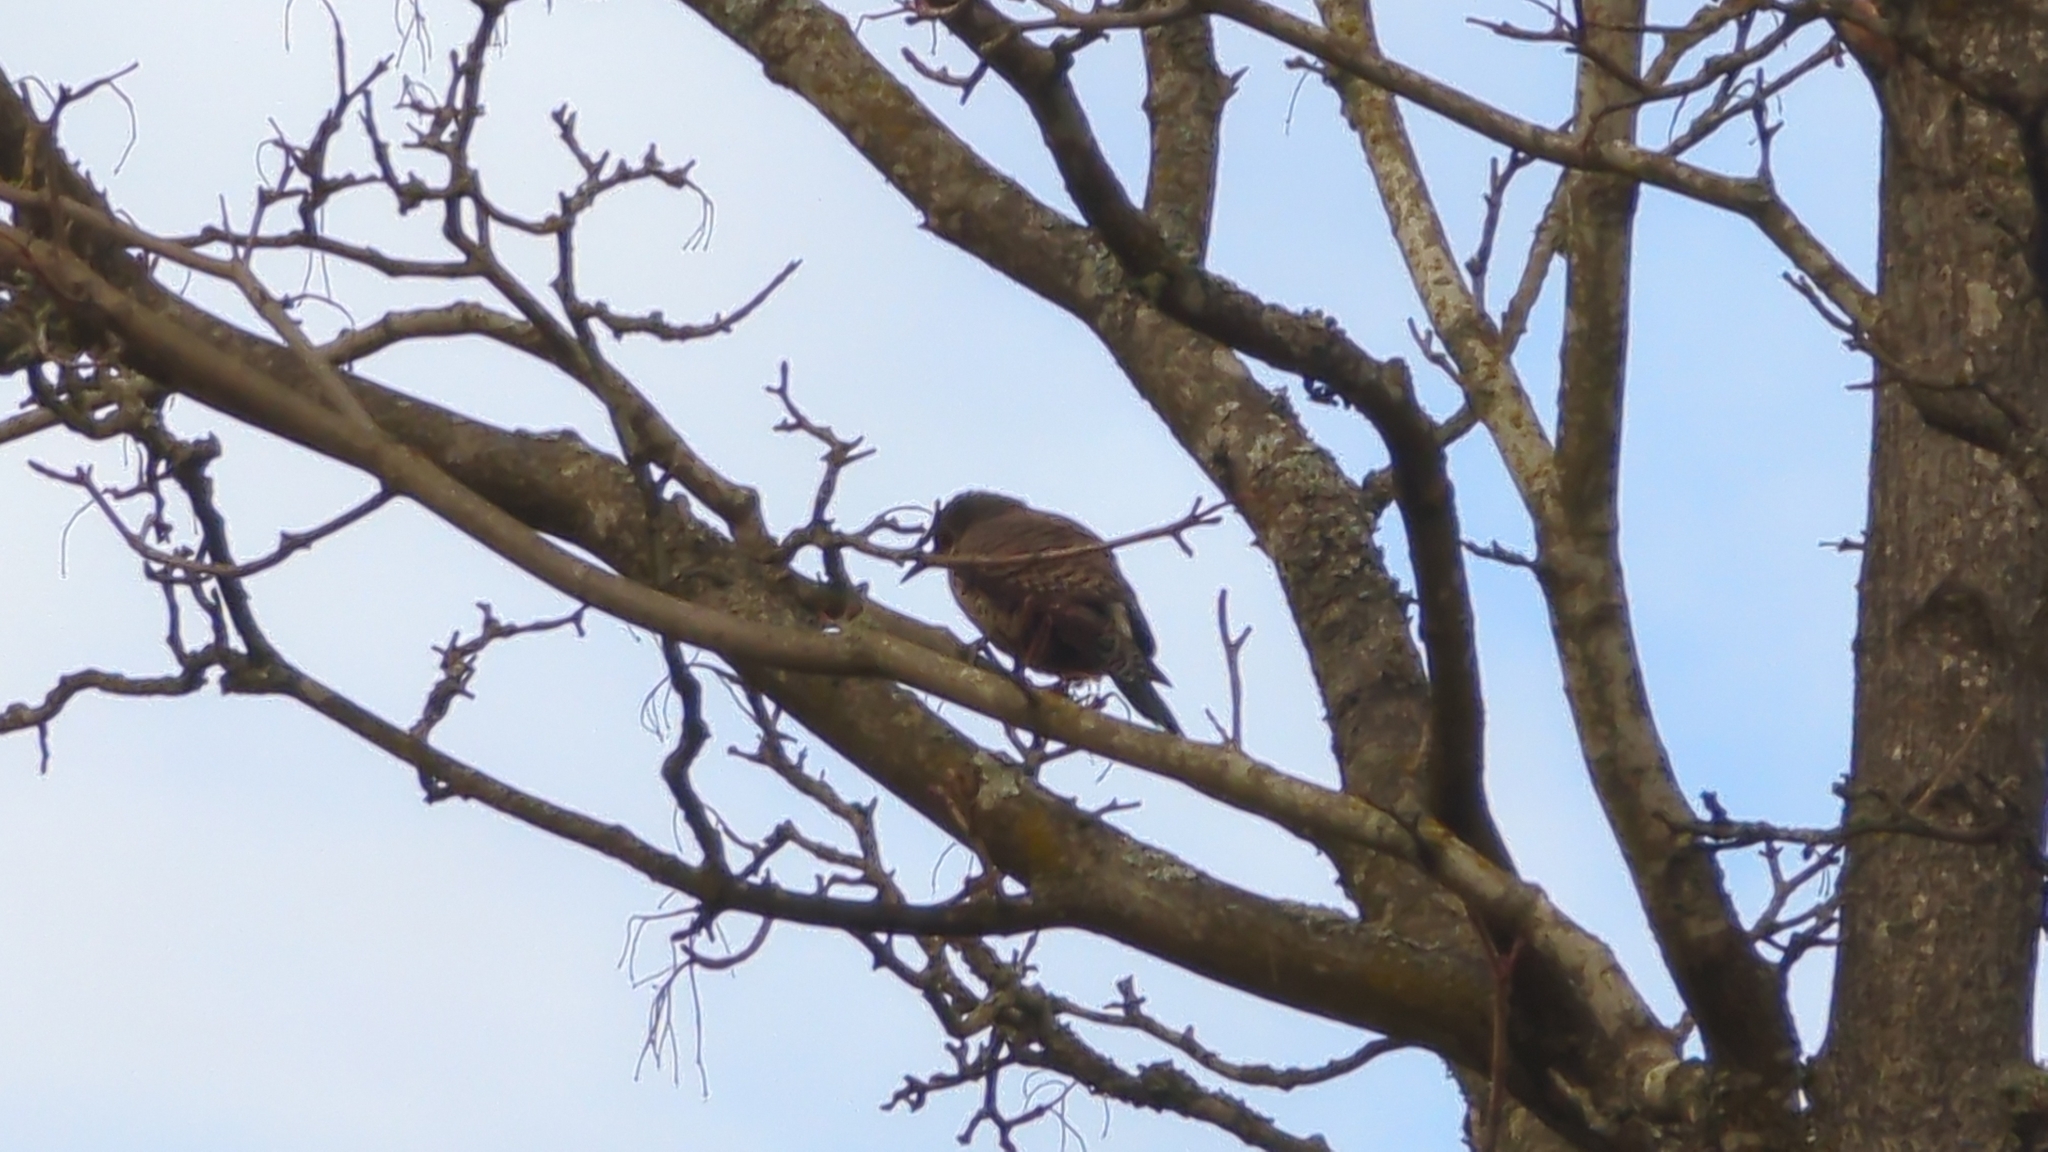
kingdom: Animalia
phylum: Chordata
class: Aves
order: Piciformes
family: Picidae
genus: Colaptes
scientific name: Colaptes auratus
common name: Northern flicker
